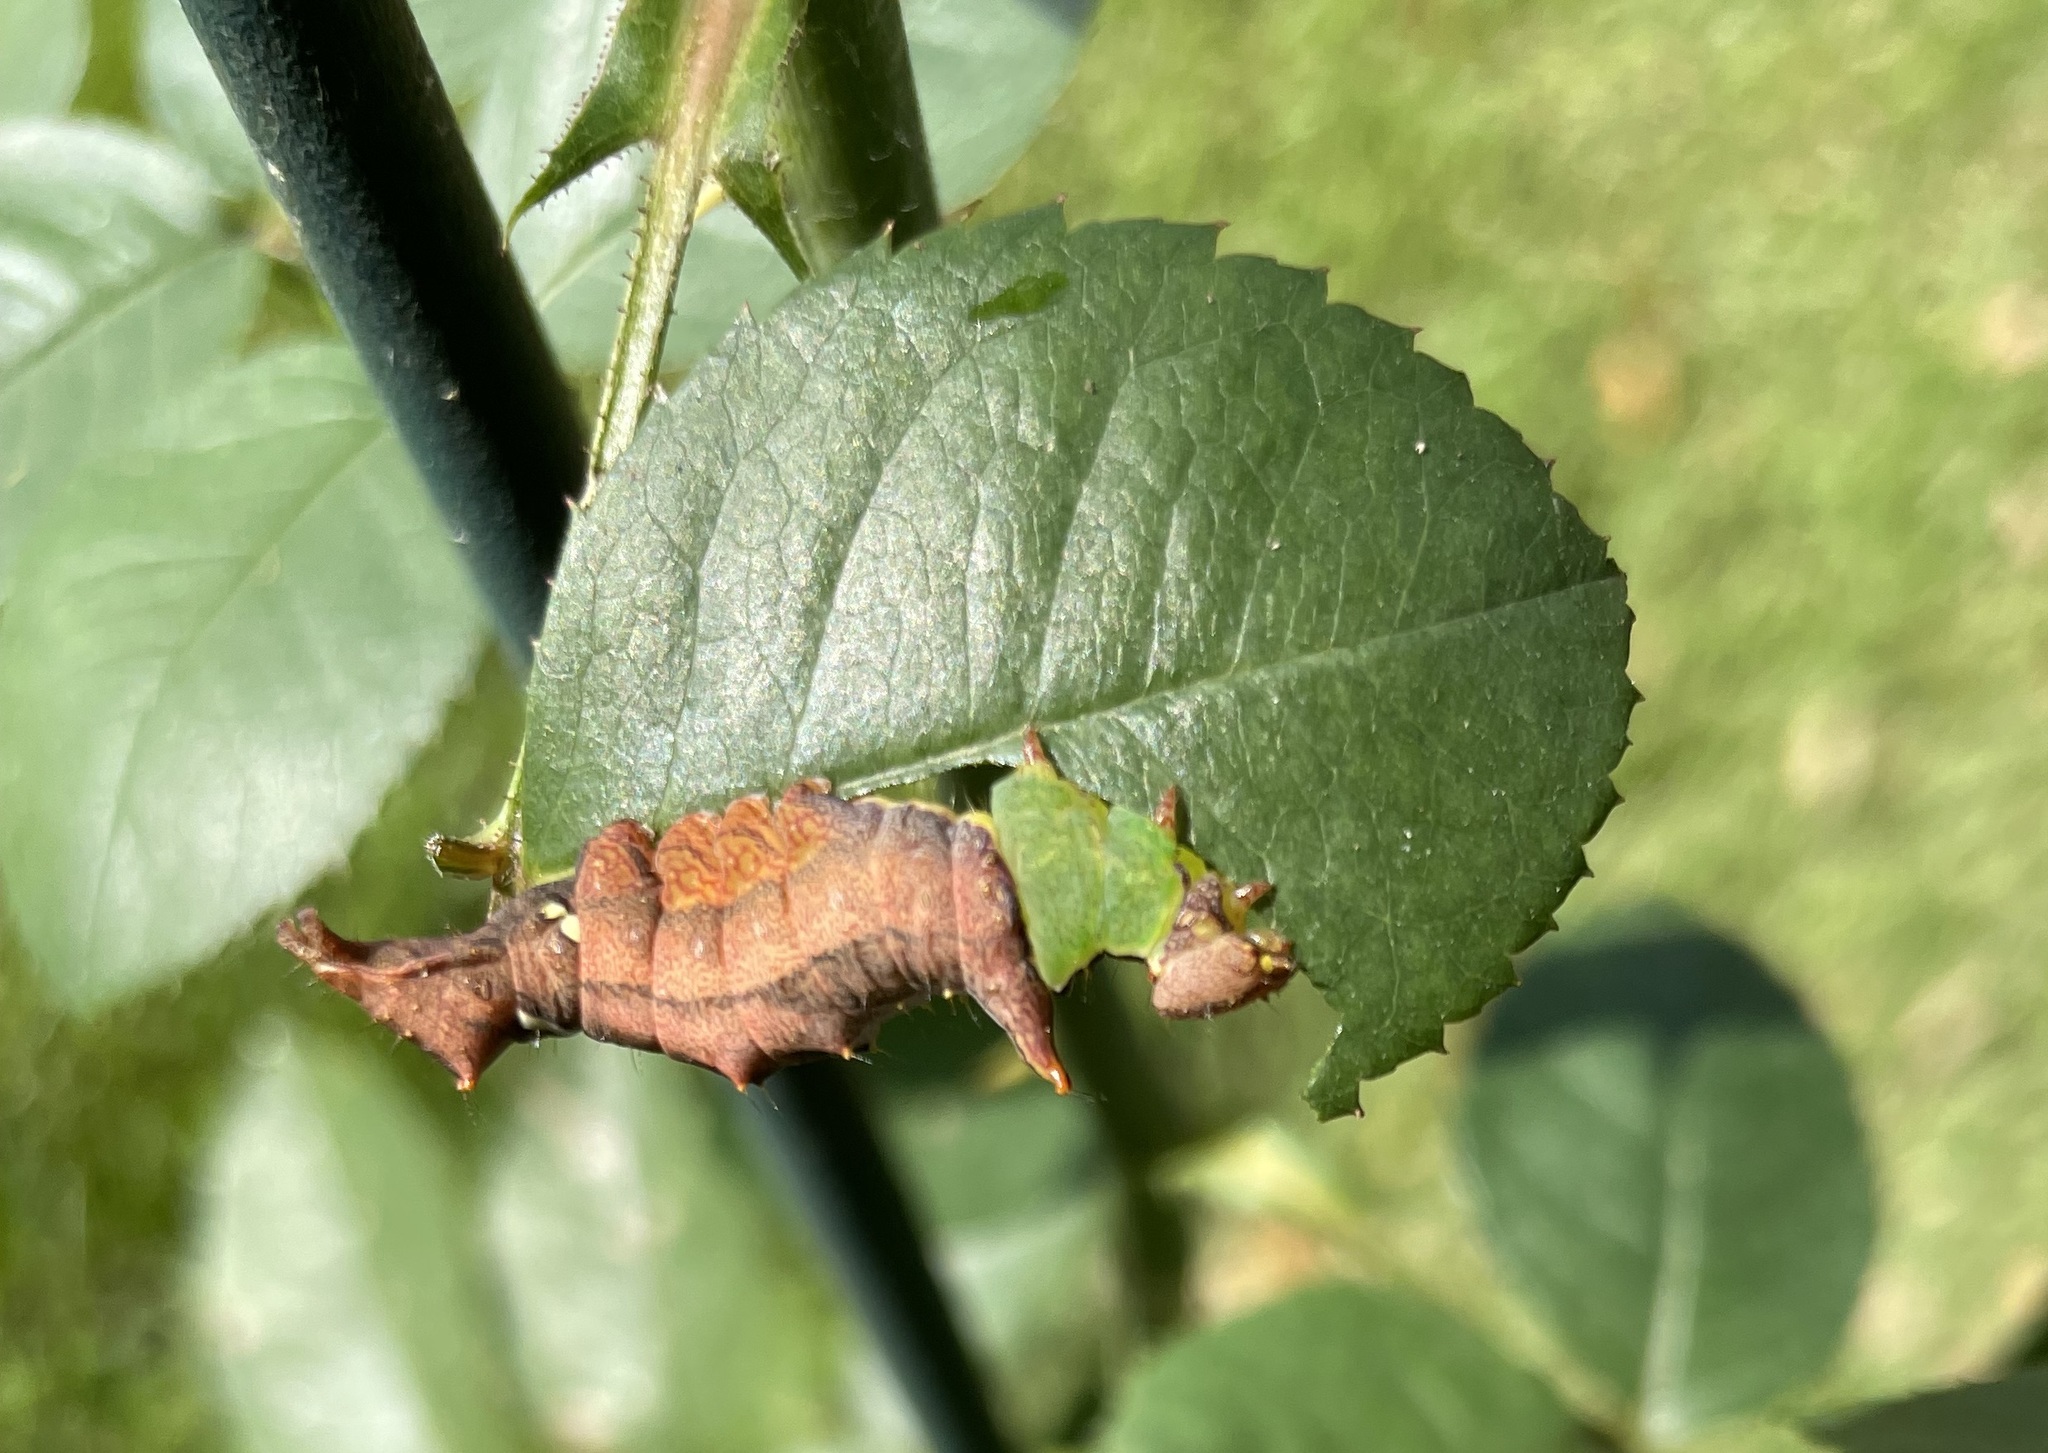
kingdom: Animalia
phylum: Arthropoda
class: Insecta
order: Lepidoptera
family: Notodontidae
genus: Schizura
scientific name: Schizura ipomaeae
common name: Morning-glory prominent
